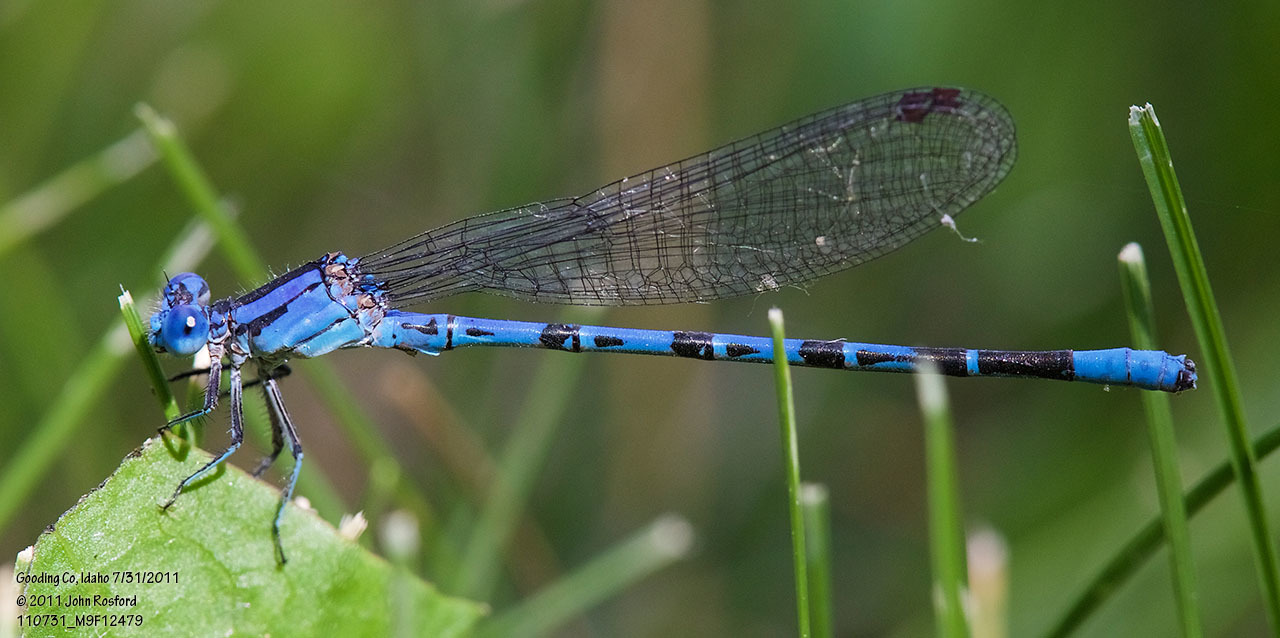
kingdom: Animalia
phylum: Arthropoda
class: Insecta
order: Odonata
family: Coenagrionidae
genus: Argia
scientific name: Argia vivida
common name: Vivid dancer
